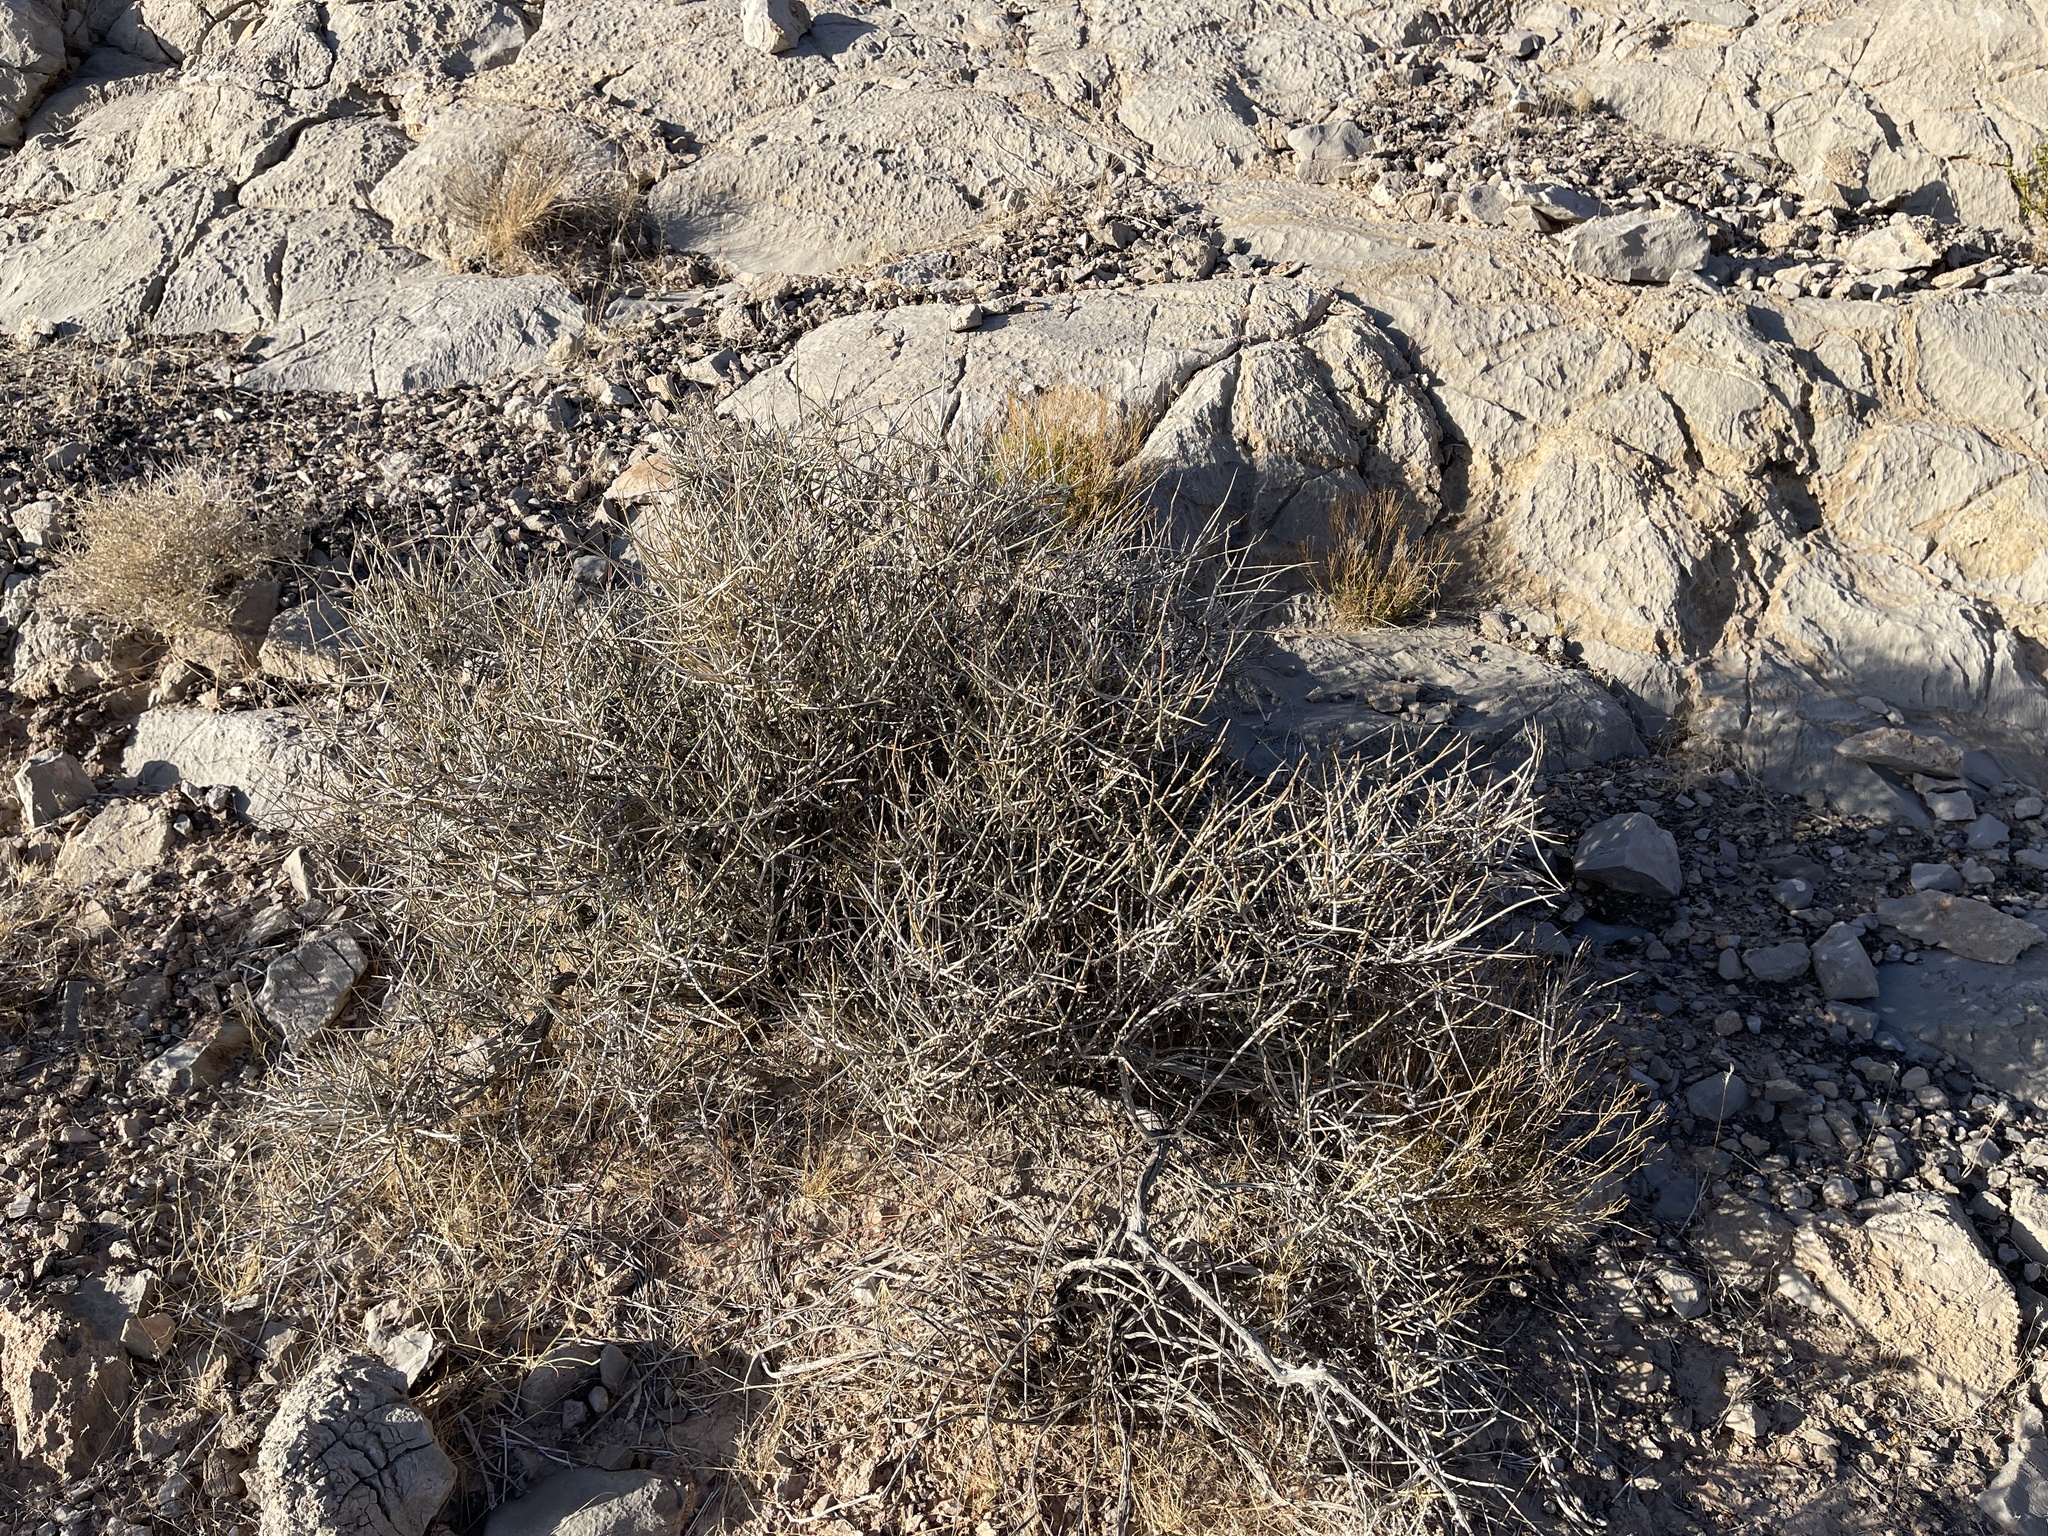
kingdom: Plantae
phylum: Tracheophyta
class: Gnetopsida
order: Ephedrales
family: Ephedraceae
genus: Ephedra
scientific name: Ephedra nevadensis
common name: Gray ephedra
